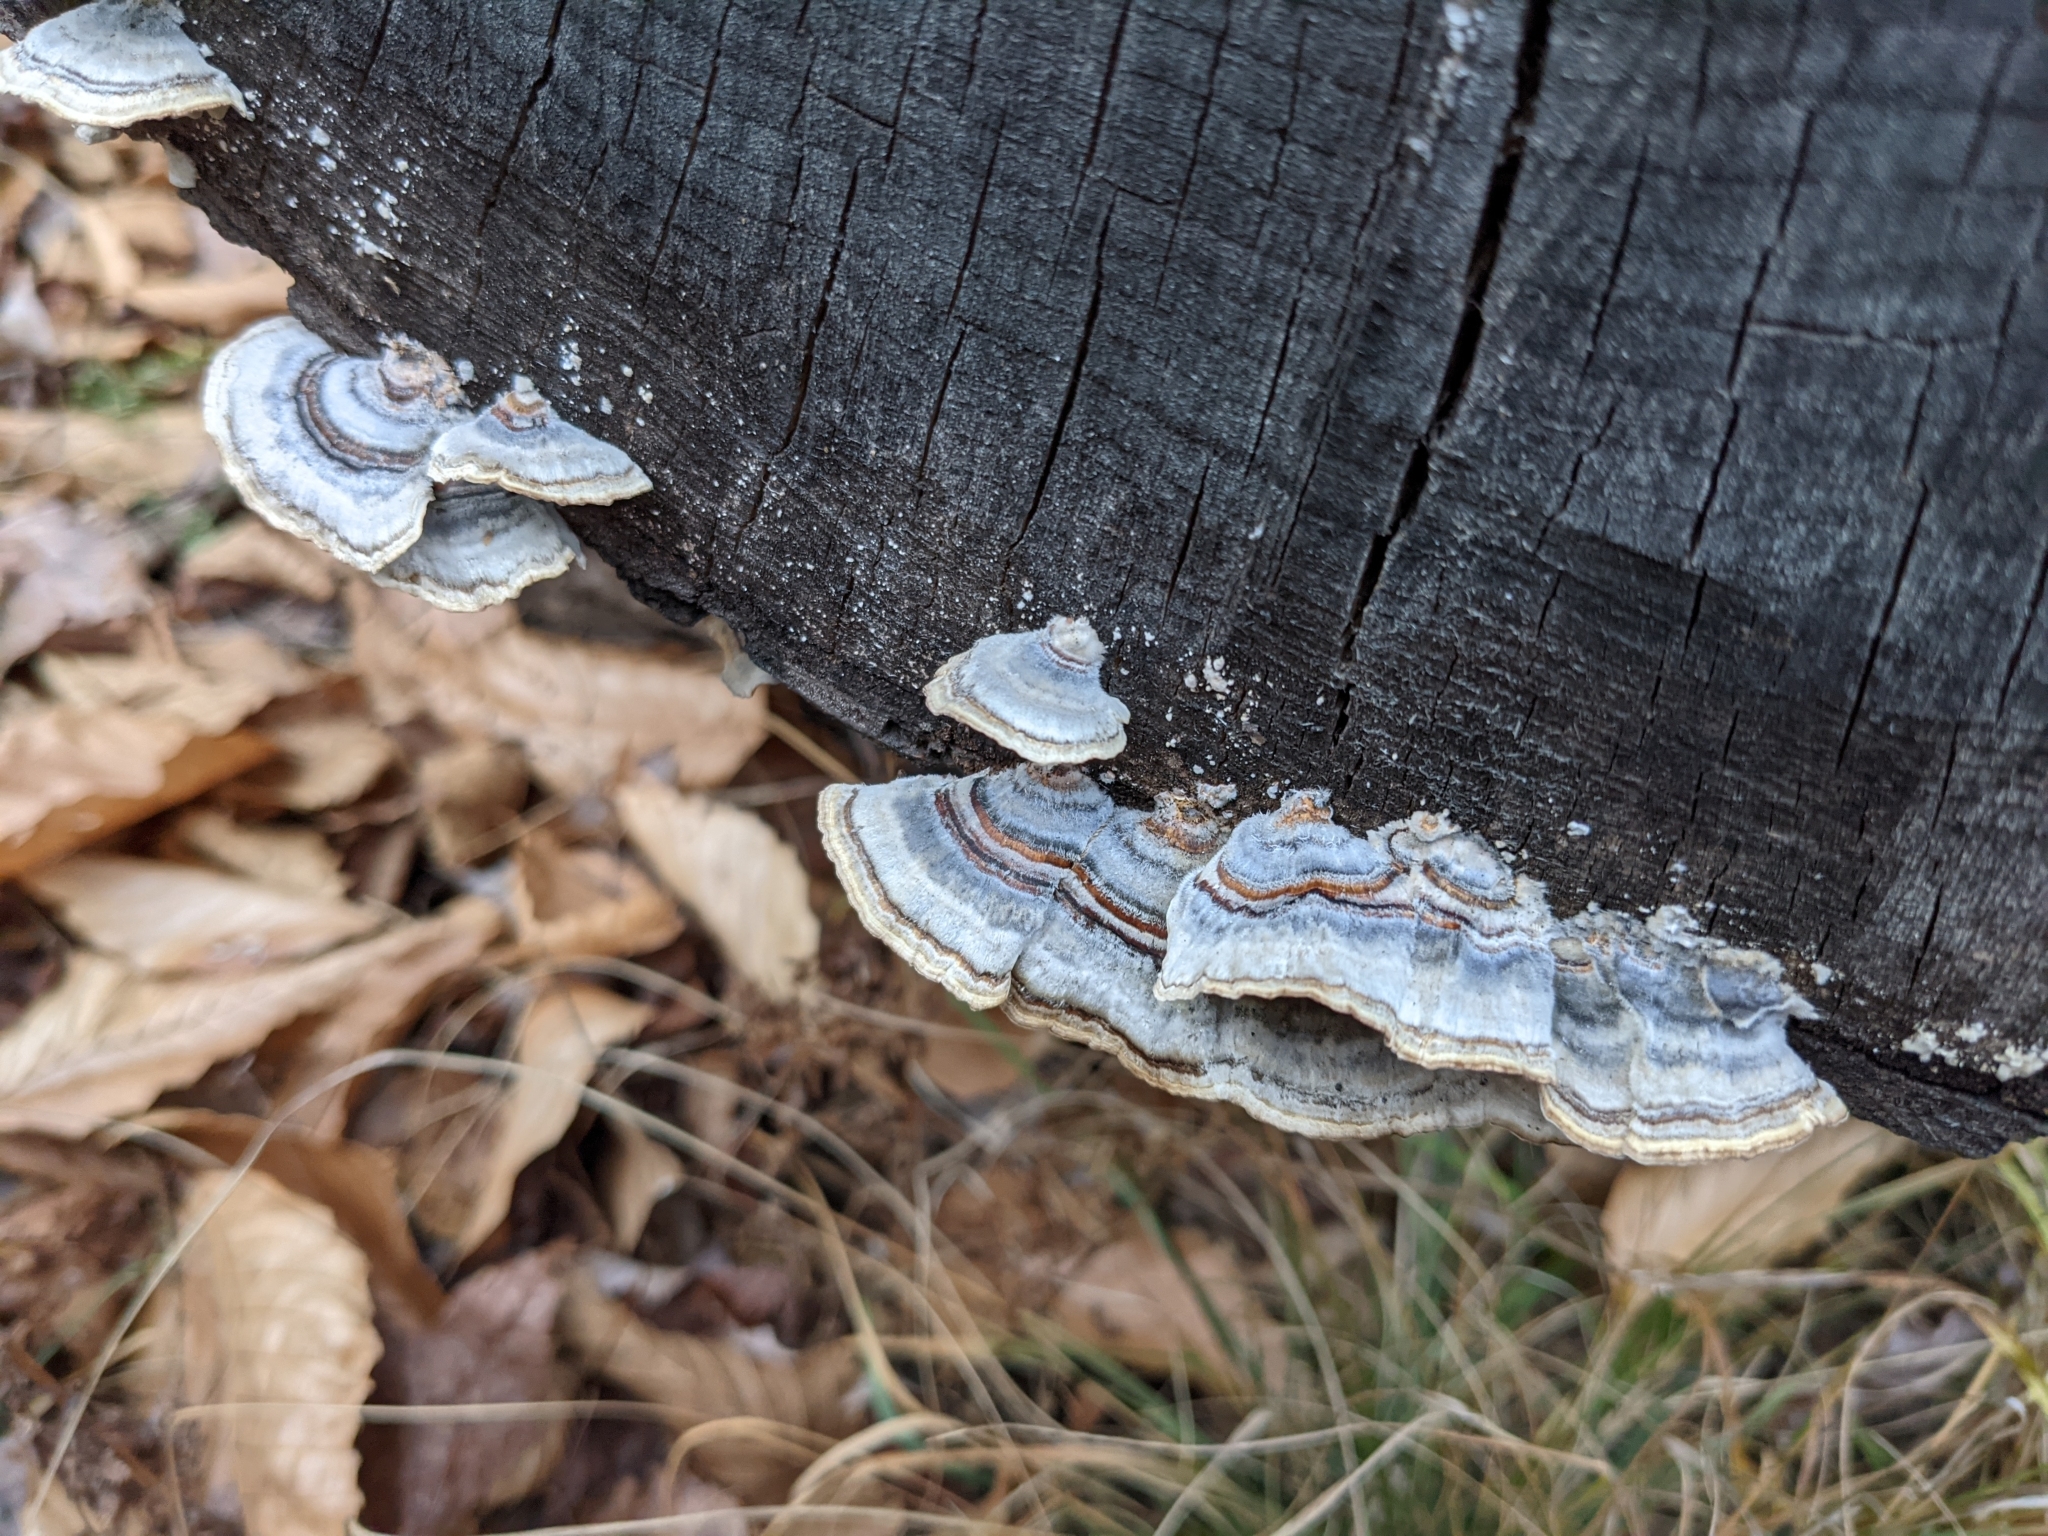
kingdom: Fungi
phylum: Basidiomycota
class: Agaricomycetes
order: Polyporales
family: Polyporaceae
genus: Trametes
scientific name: Trametes versicolor
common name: Turkeytail
